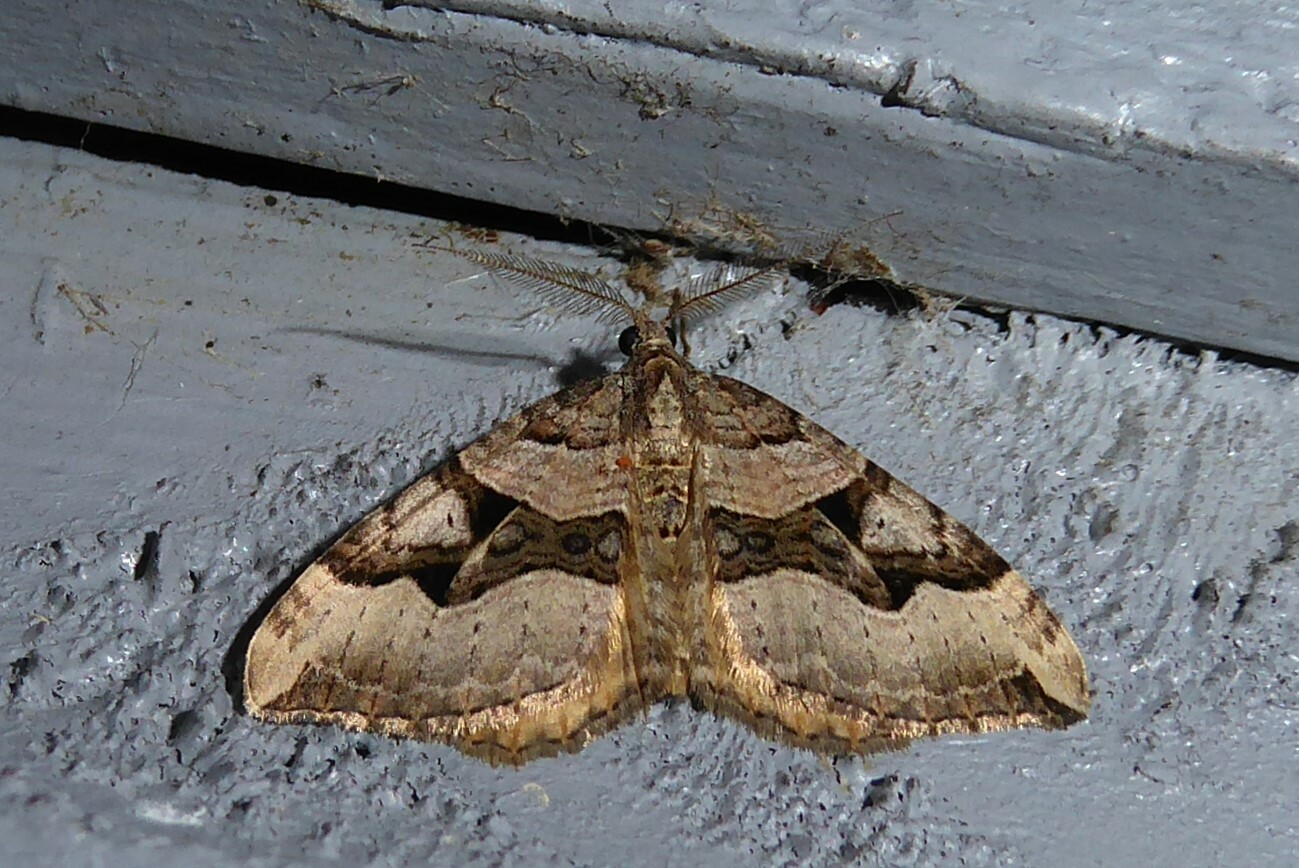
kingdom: Animalia
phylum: Arthropoda
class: Insecta
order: Lepidoptera
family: Geometridae
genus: Xanthorhoe
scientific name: Xanthorhoe semifissata
